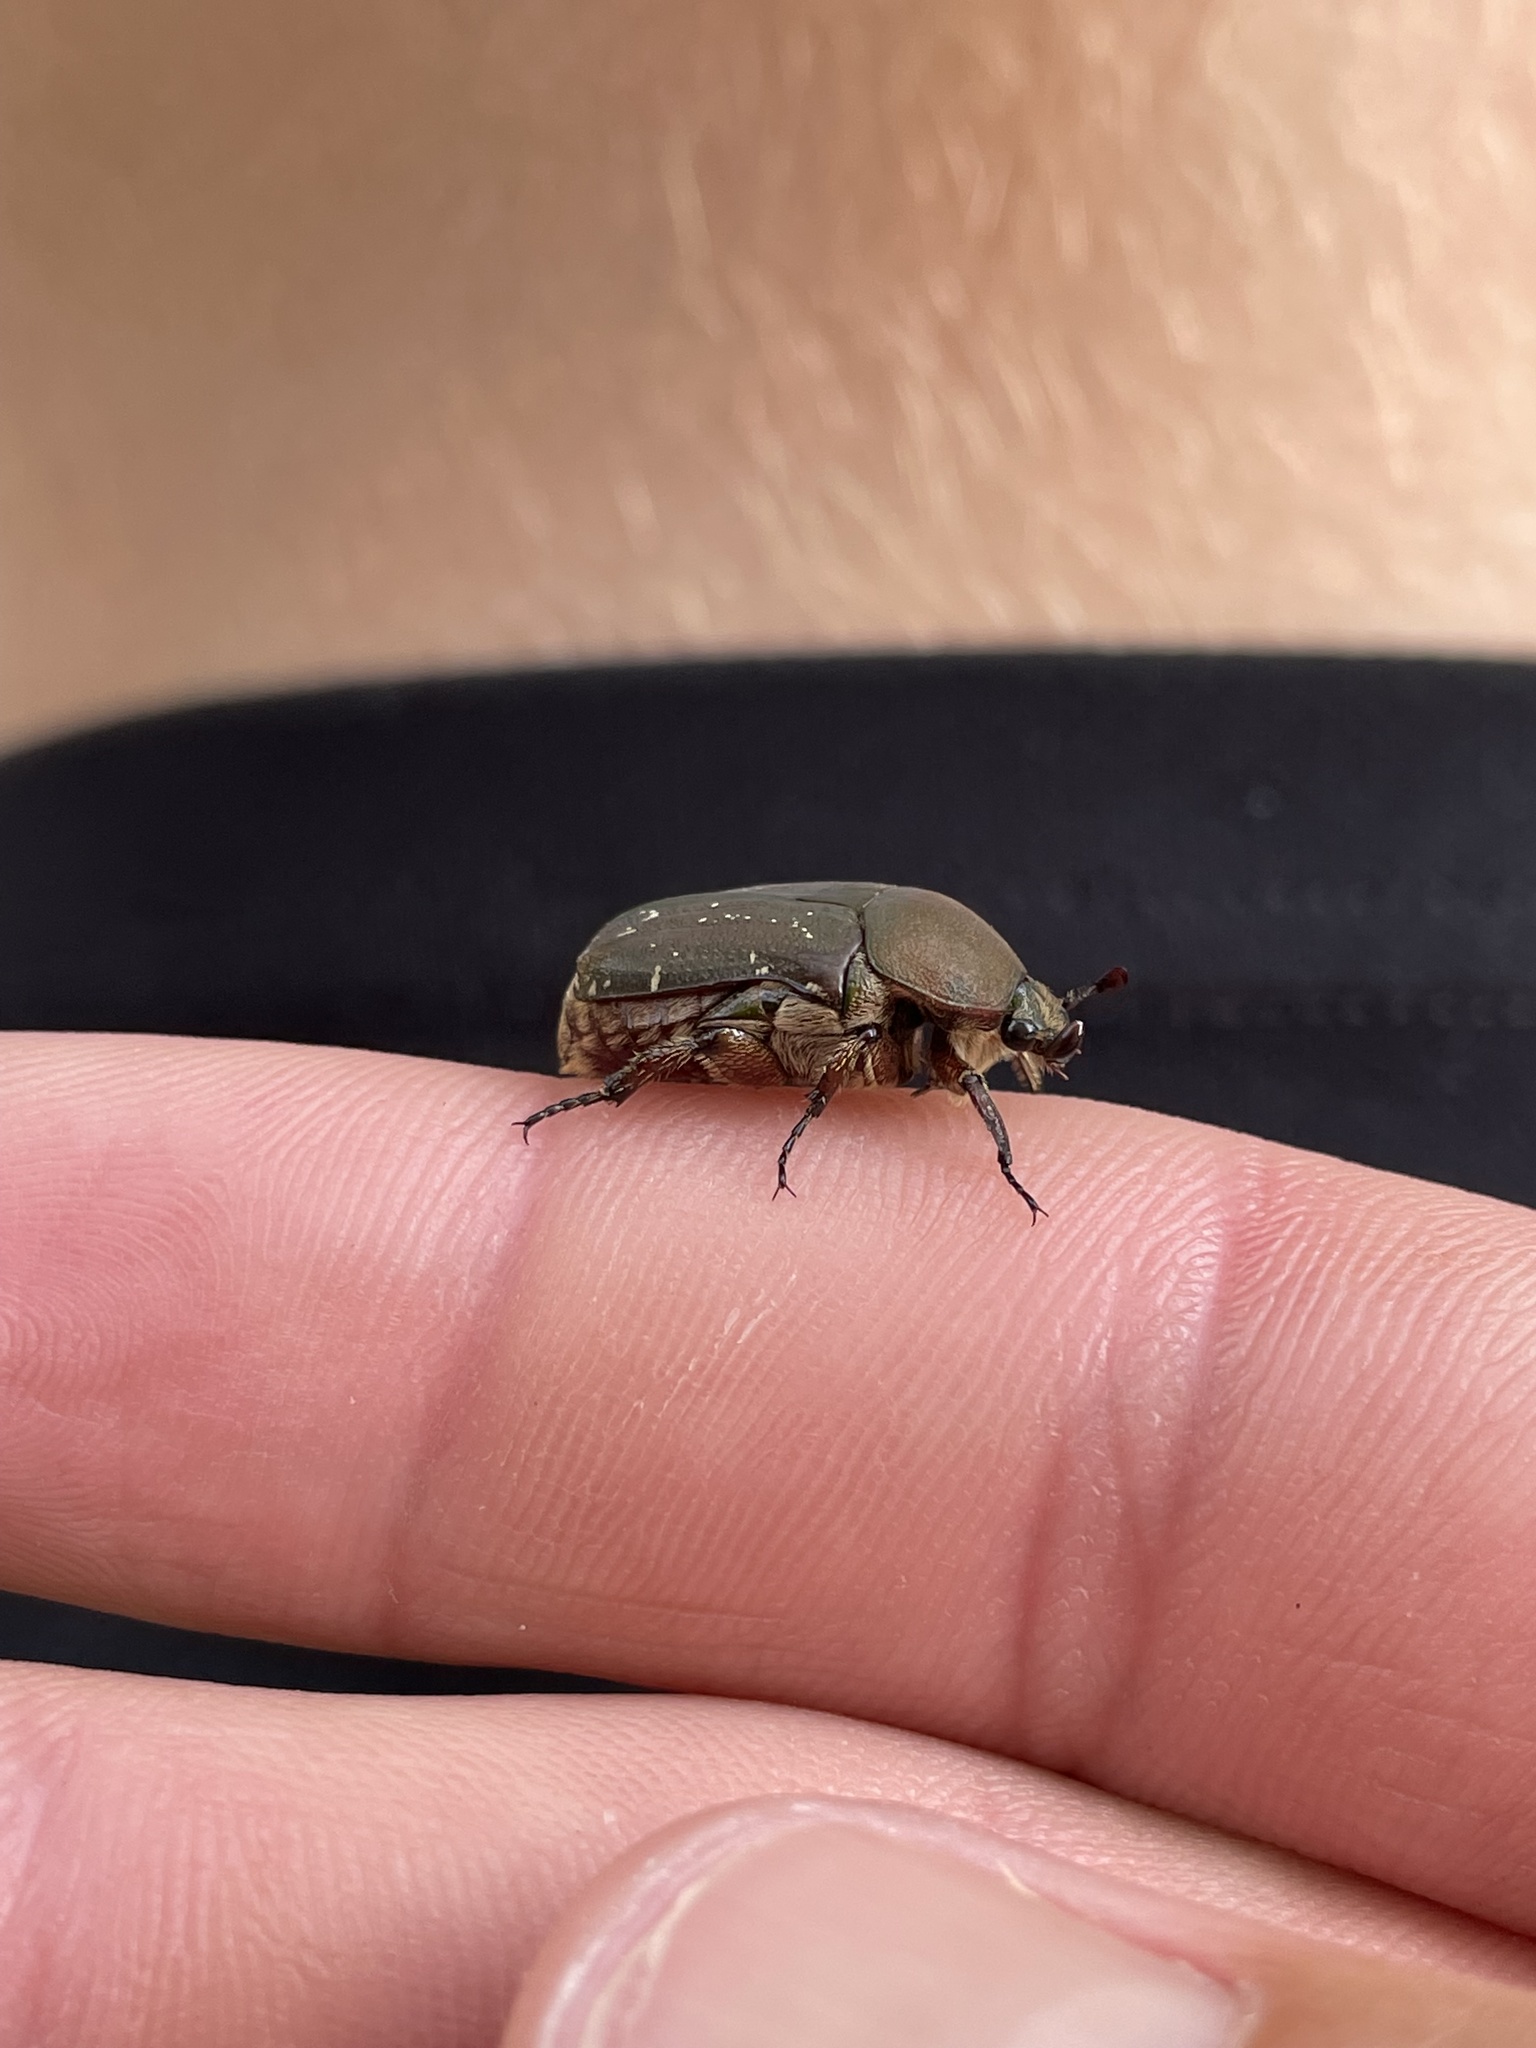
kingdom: Animalia
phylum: Arthropoda
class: Insecta
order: Coleoptera
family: Scarabaeidae
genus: Euphoria
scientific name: Euphoria herbacea
